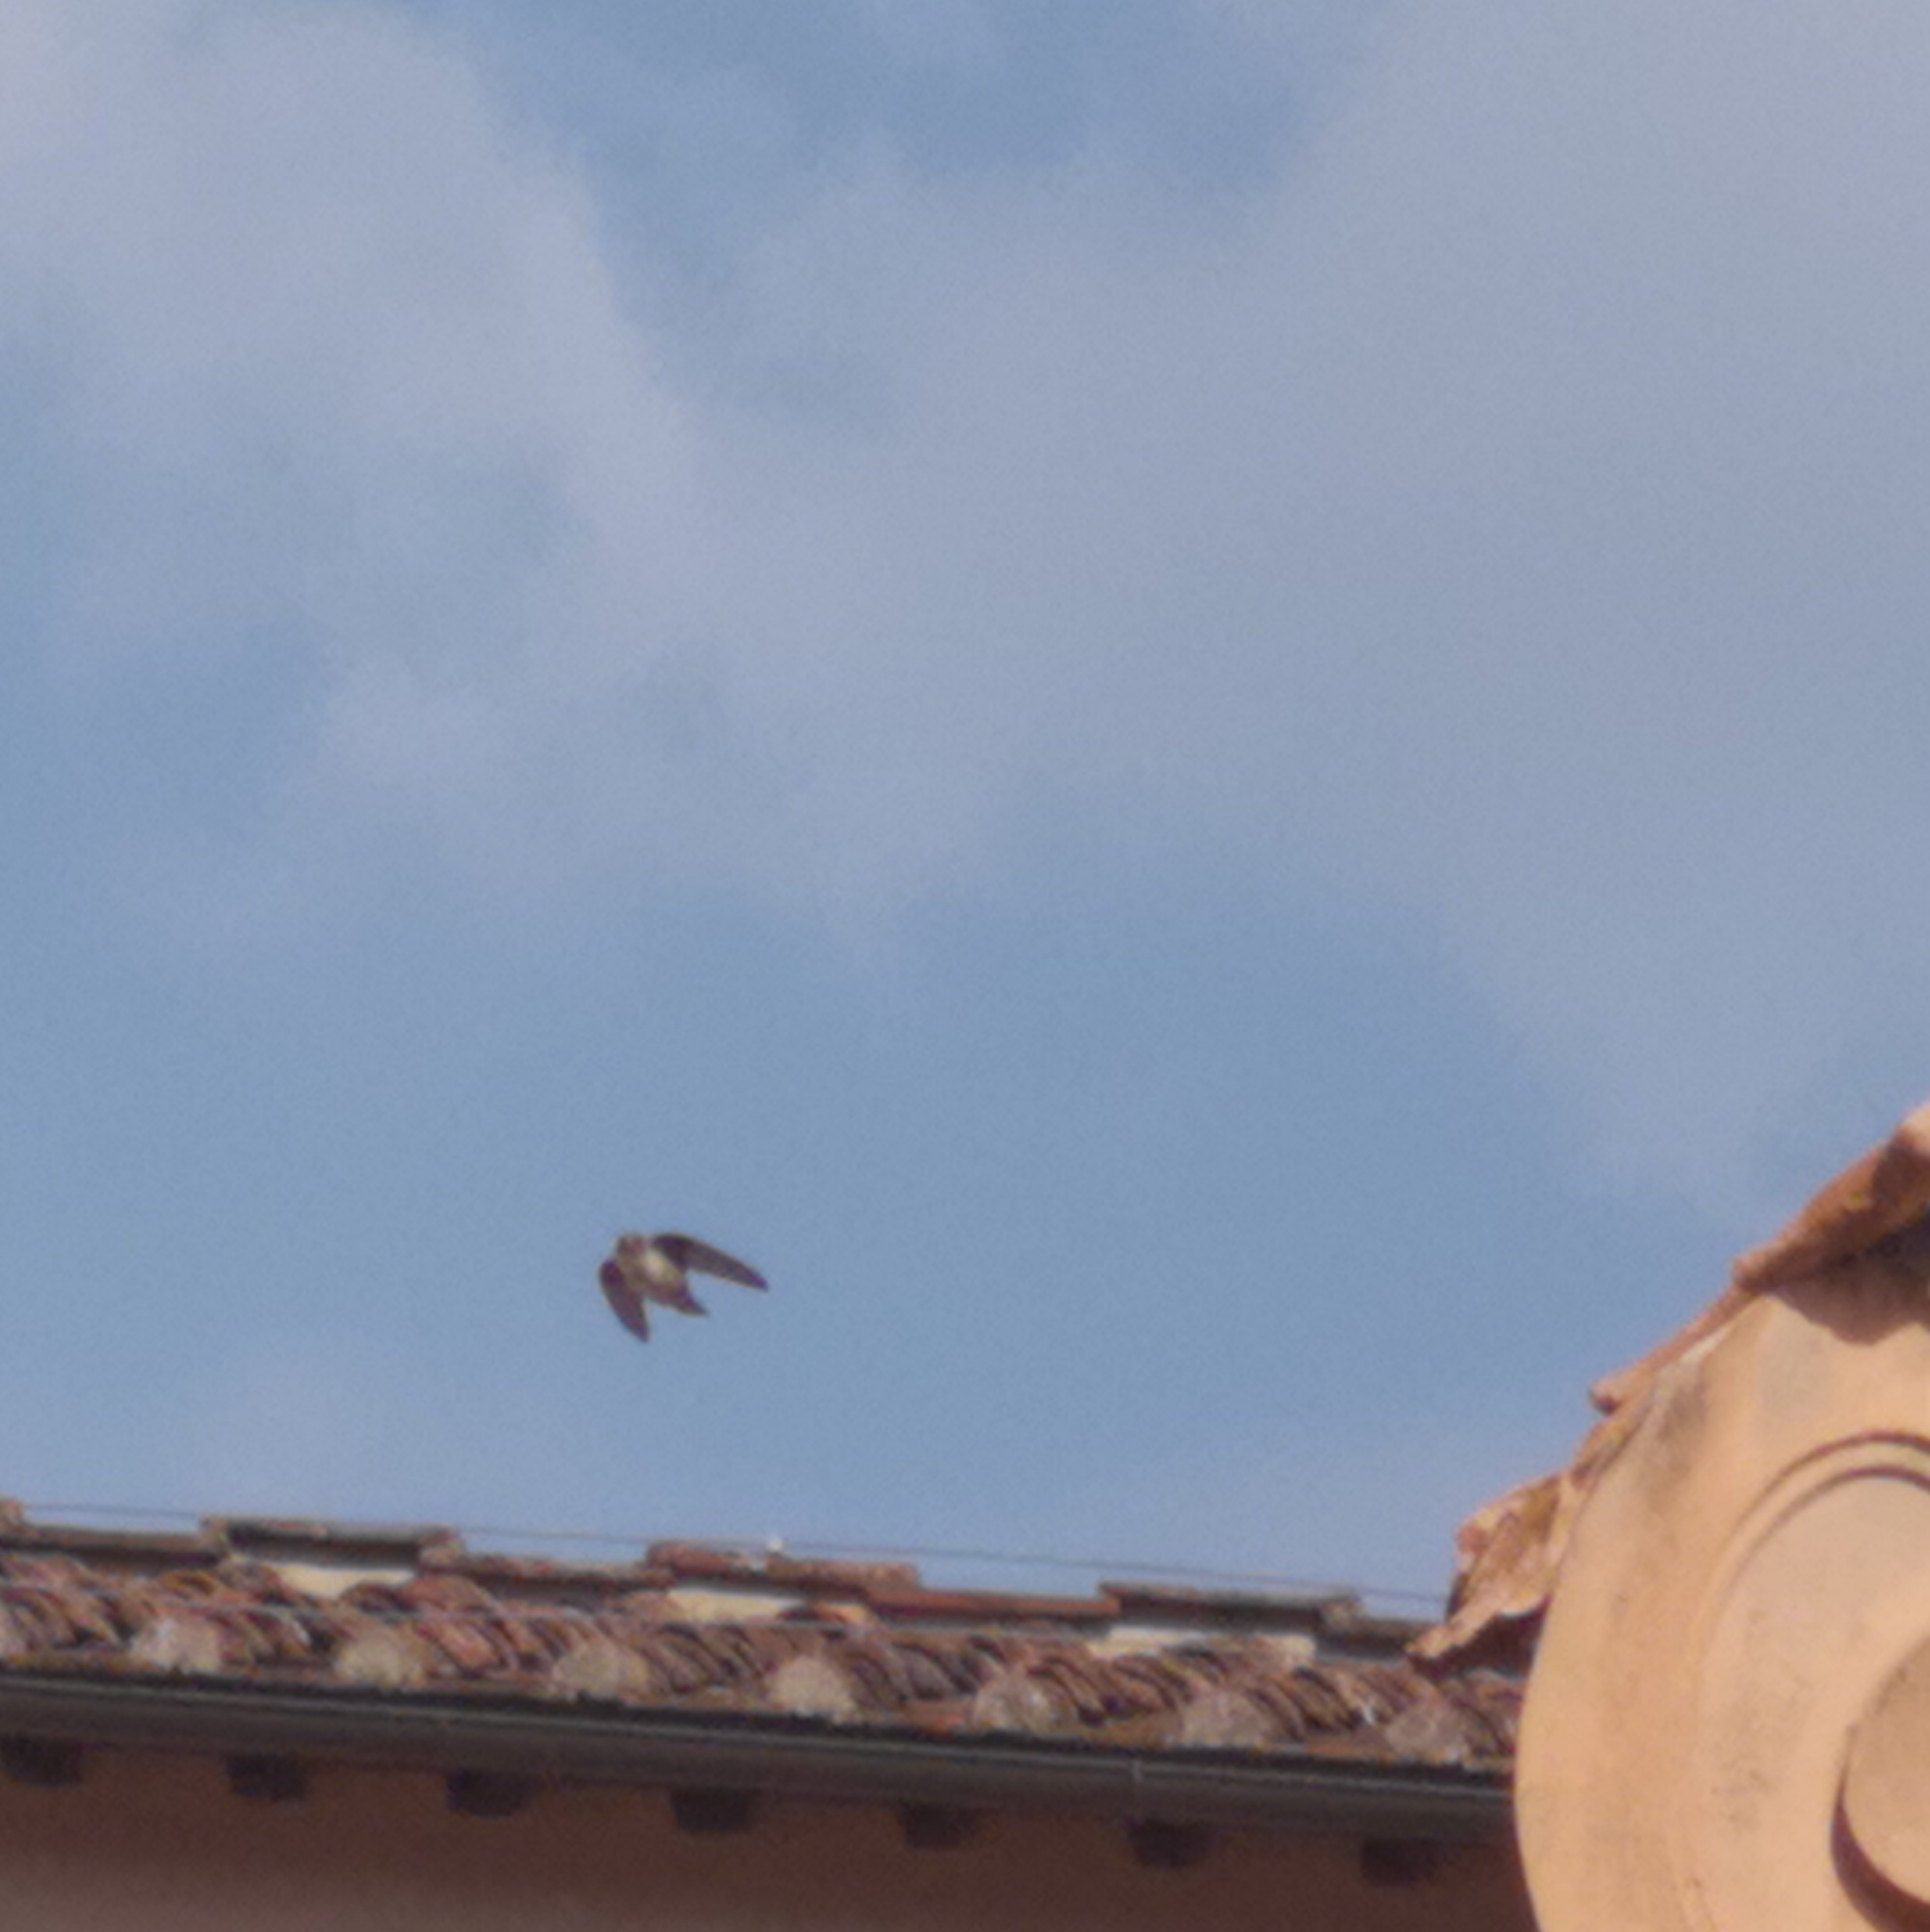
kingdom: Animalia
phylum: Chordata
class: Aves
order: Passeriformes
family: Hirundinidae
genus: Ptyonoprogne
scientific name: Ptyonoprogne rupestris
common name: Eurasian crag martin
